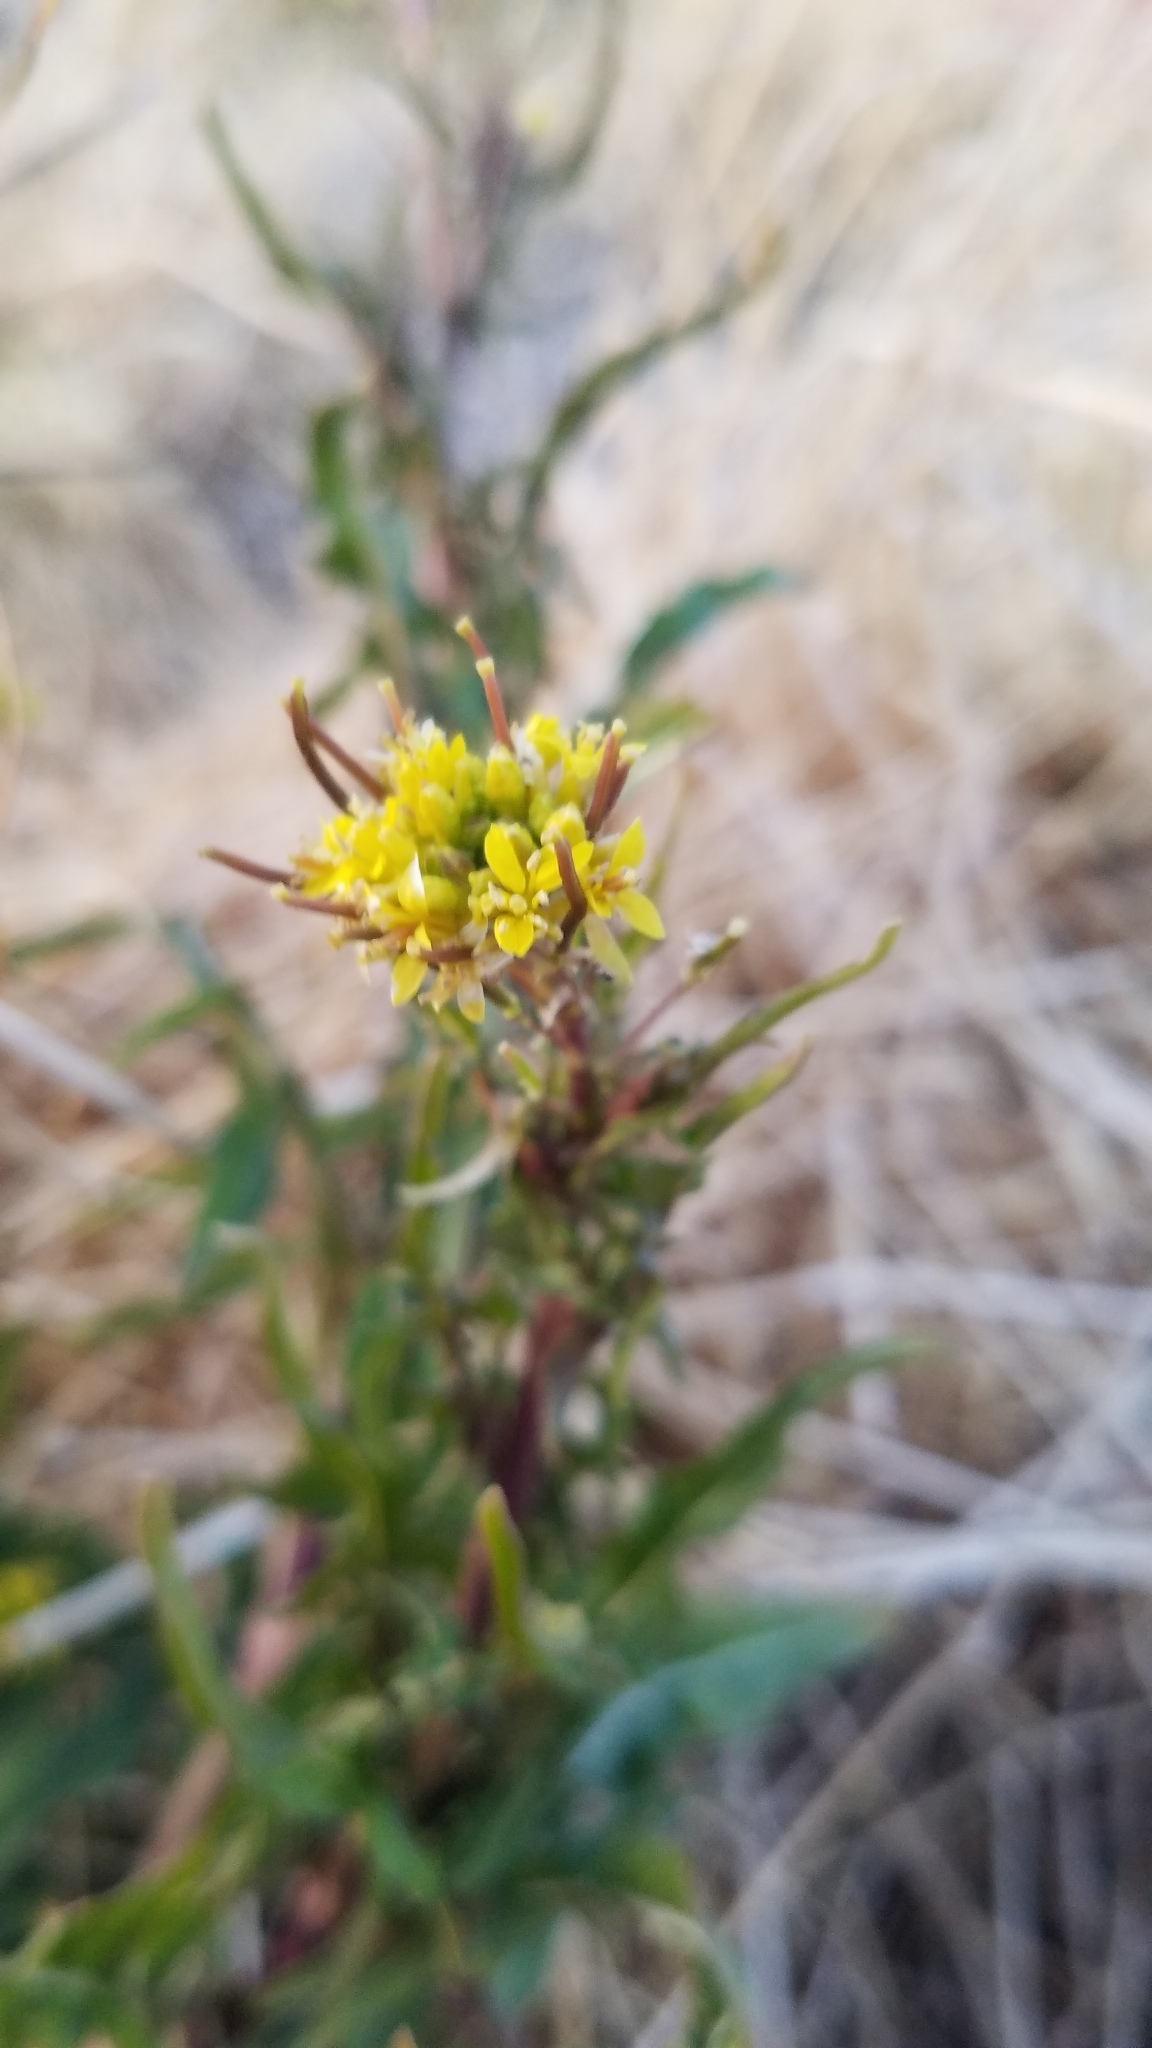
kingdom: Plantae
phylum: Tracheophyta
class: Magnoliopsida
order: Brassicales
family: Brassicaceae
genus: Sisymbrium
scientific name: Sisymbrium irio
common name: London rocket
